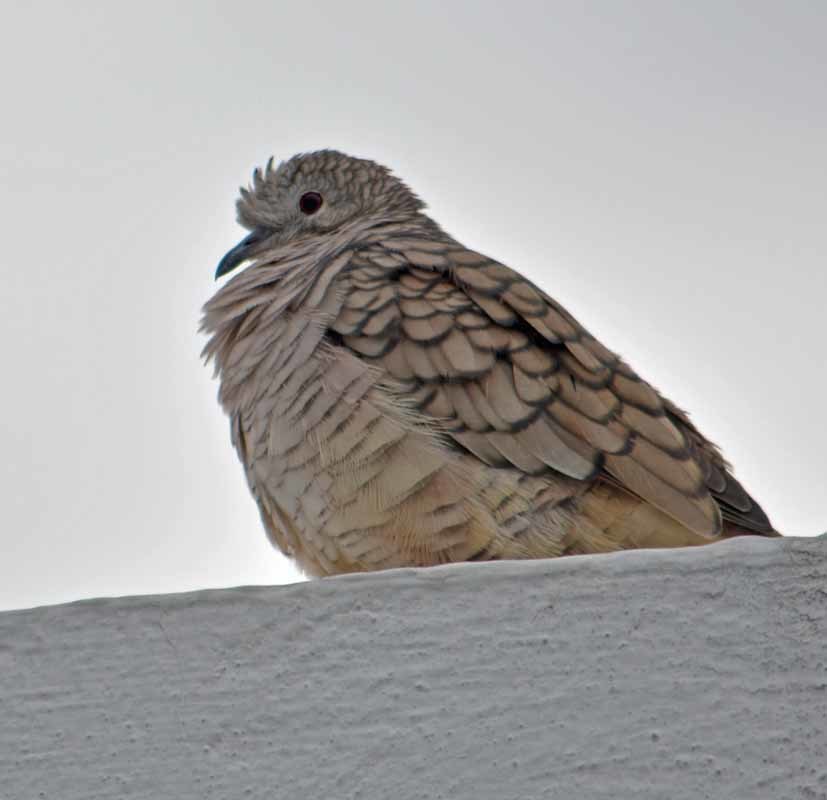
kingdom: Animalia
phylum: Chordata
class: Aves
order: Columbiformes
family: Columbidae
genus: Columbina
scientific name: Columbina inca
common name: Inca dove
